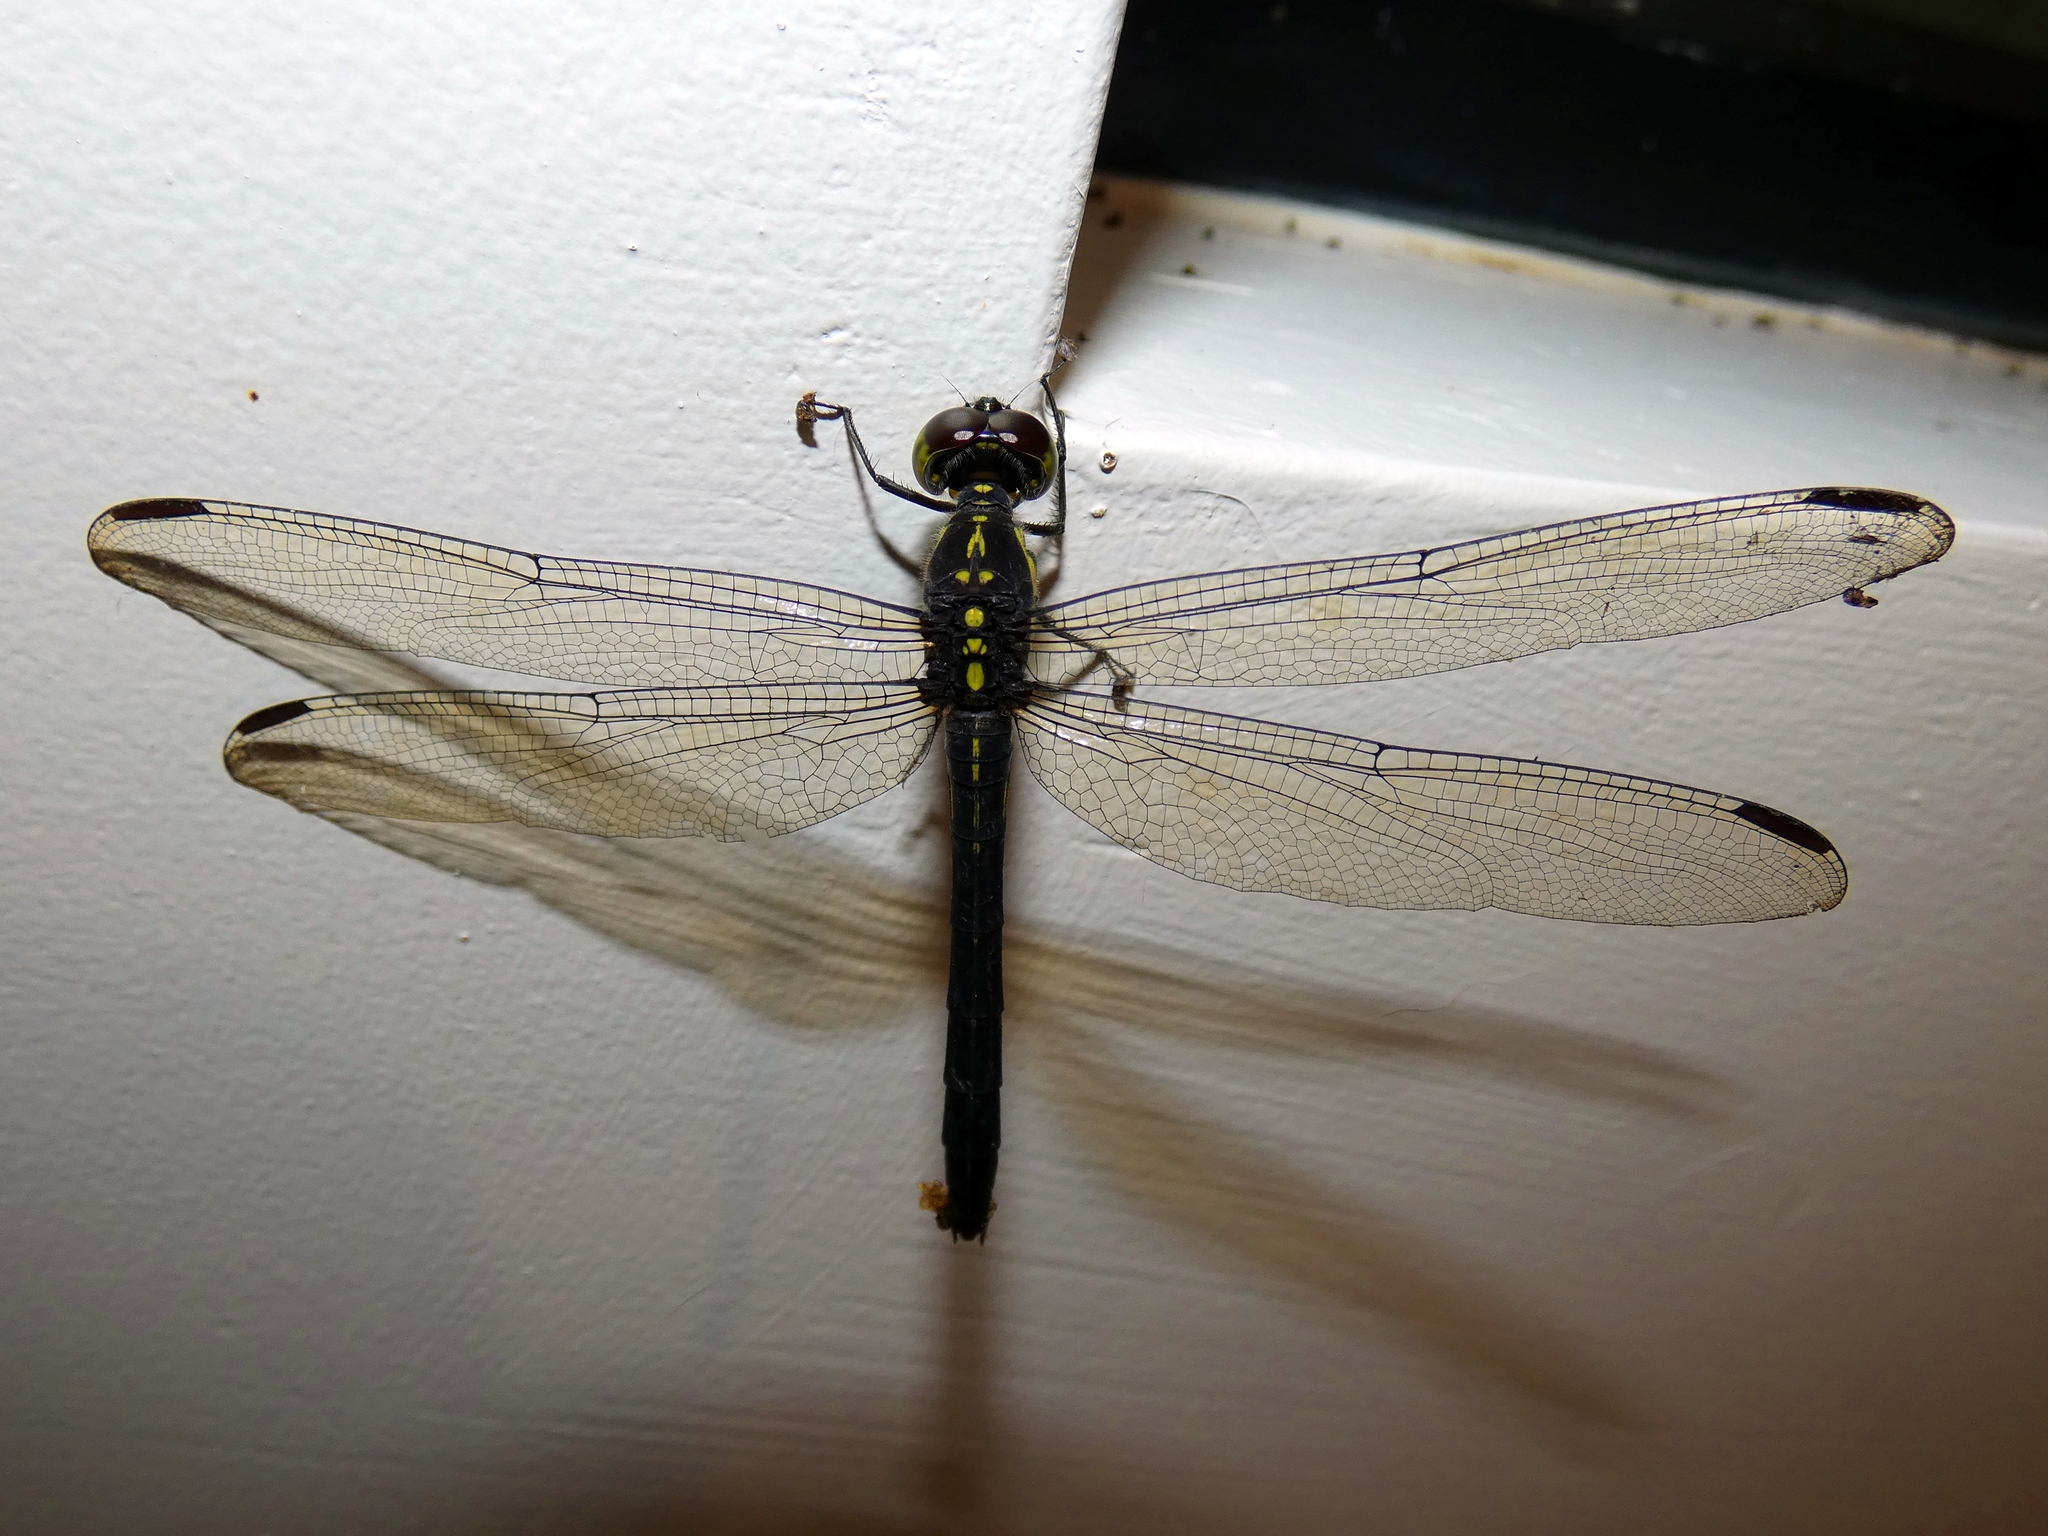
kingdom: Animalia
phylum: Arthropoda
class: Insecta
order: Odonata
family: Libellulidae
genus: Agrionoptera
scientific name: Agrionoptera longitudinalis
